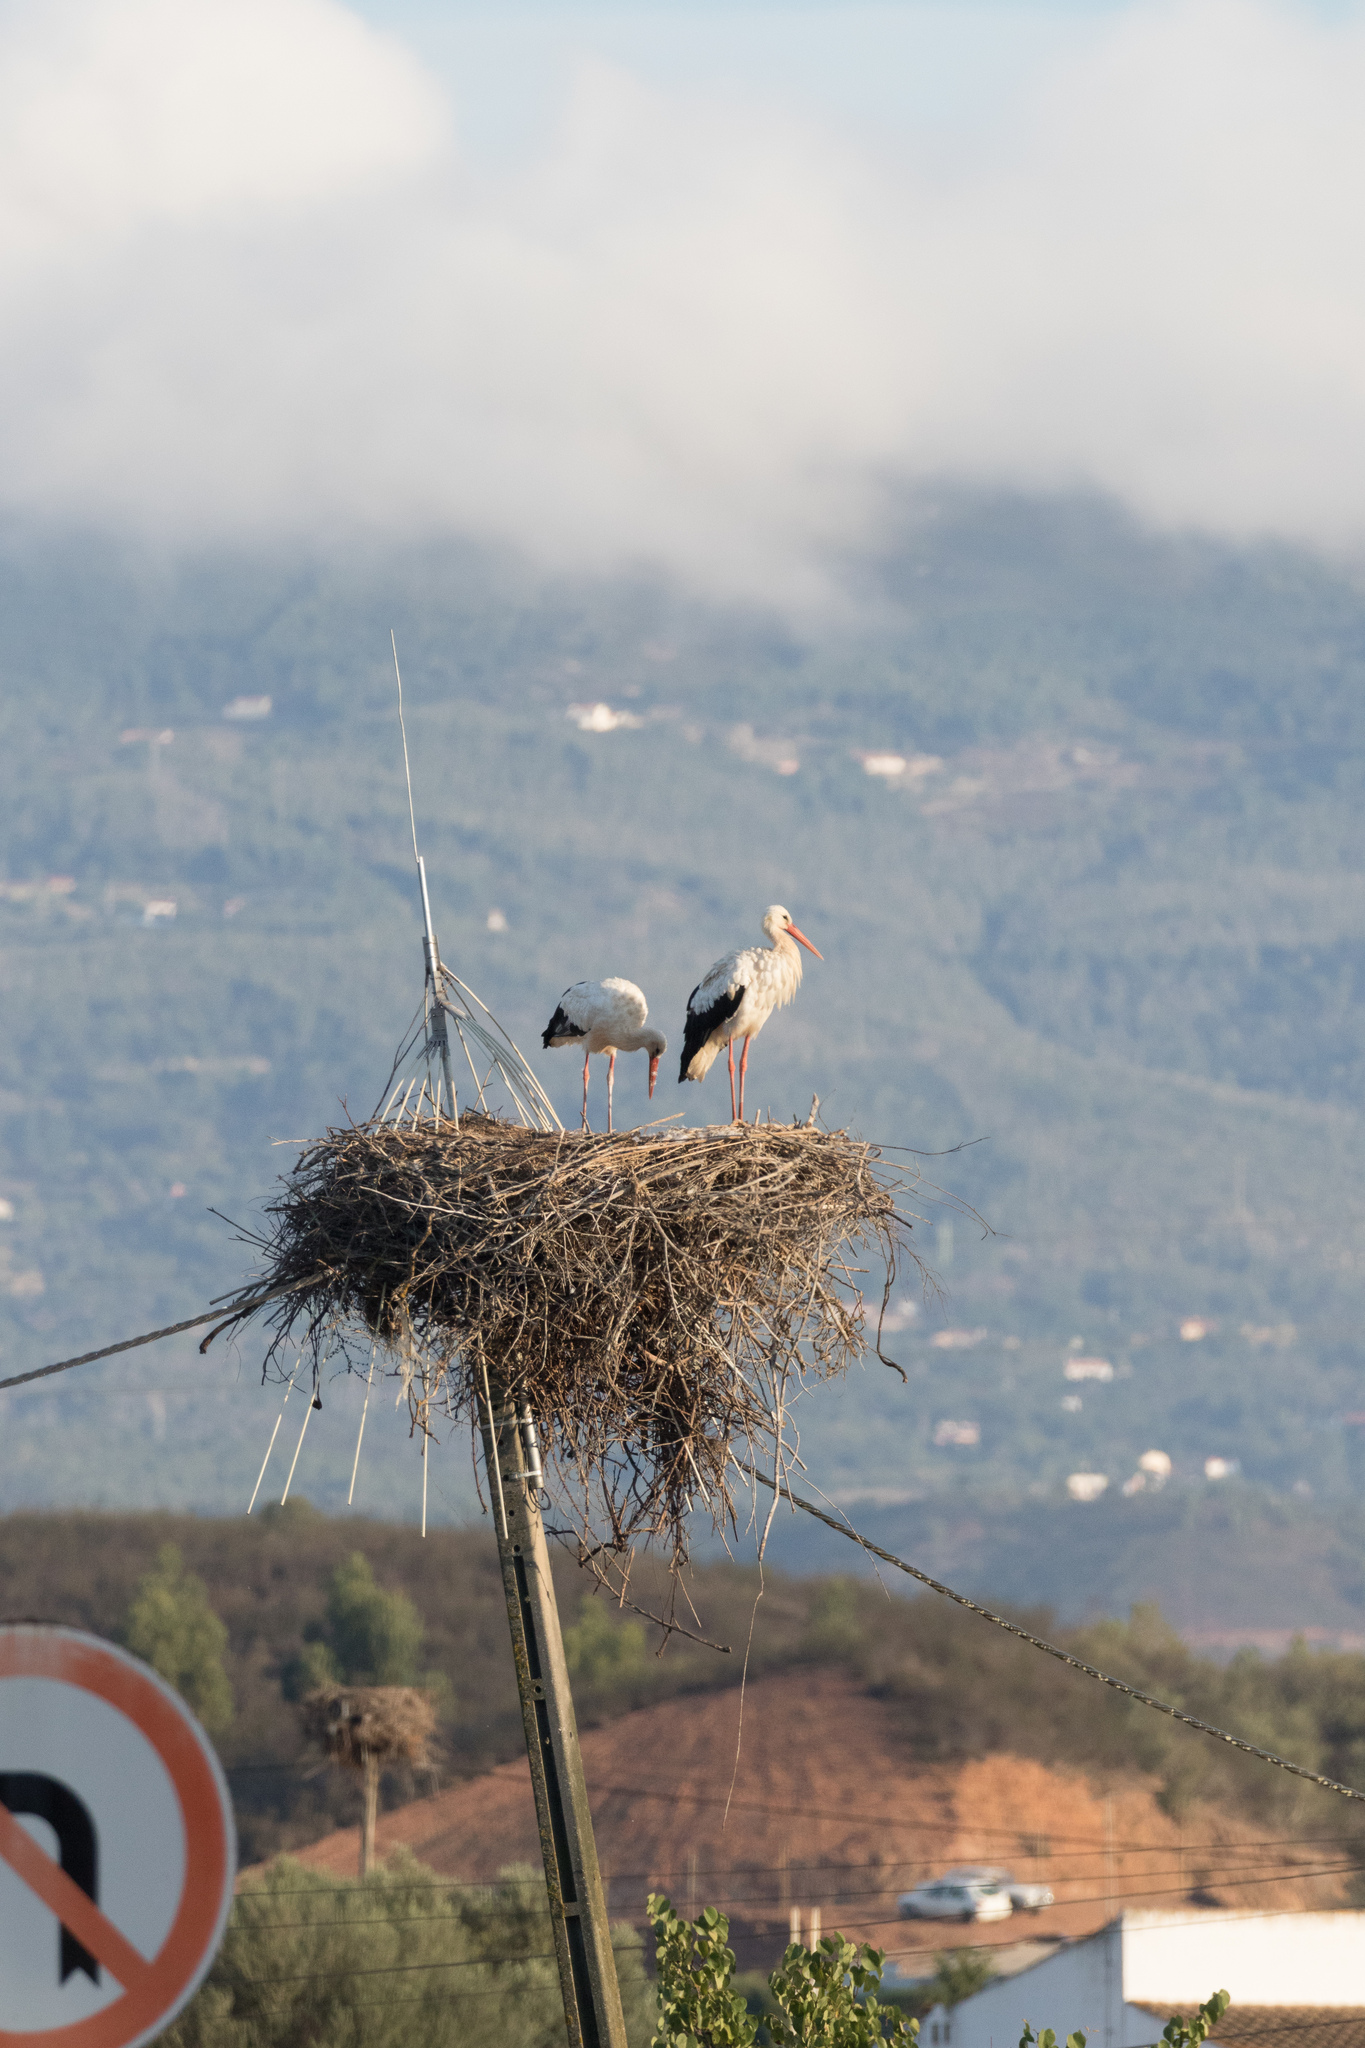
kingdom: Animalia
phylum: Chordata
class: Aves
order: Ciconiiformes
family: Ciconiidae
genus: Ciconia
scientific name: Ciconia ciconia
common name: White stork
